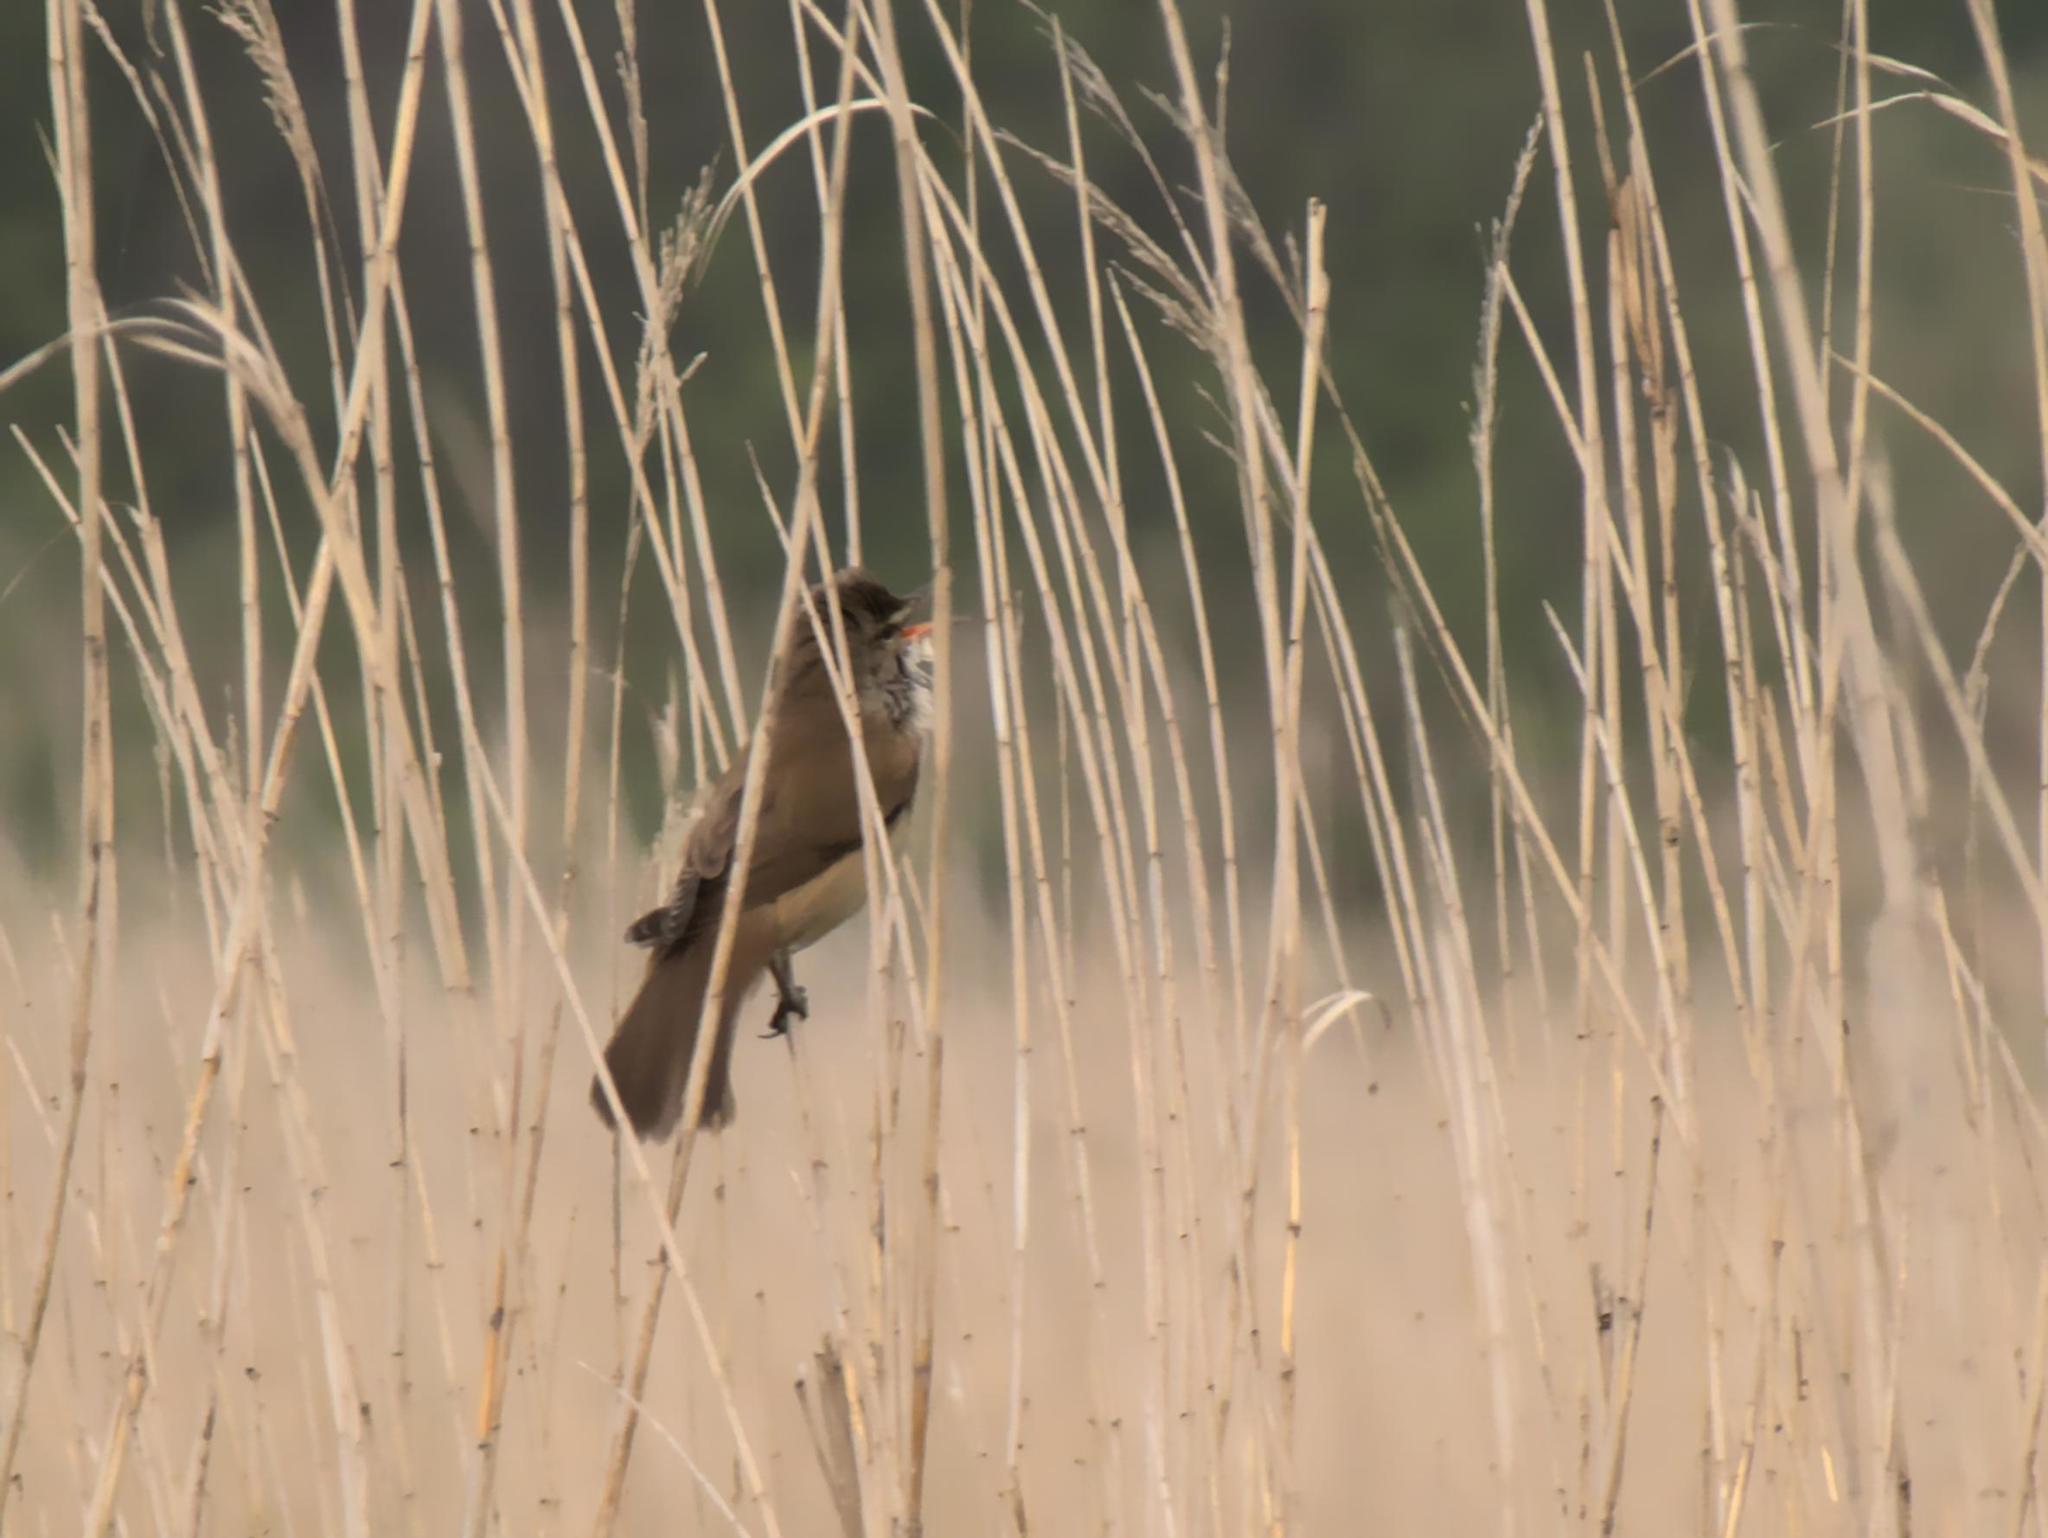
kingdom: Animalia
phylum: Chordata
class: Aves
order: Passeriformes
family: Acrocephalidae
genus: Acrocephalus
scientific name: Acrocephalus arundinaceus
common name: Great reed warbler
